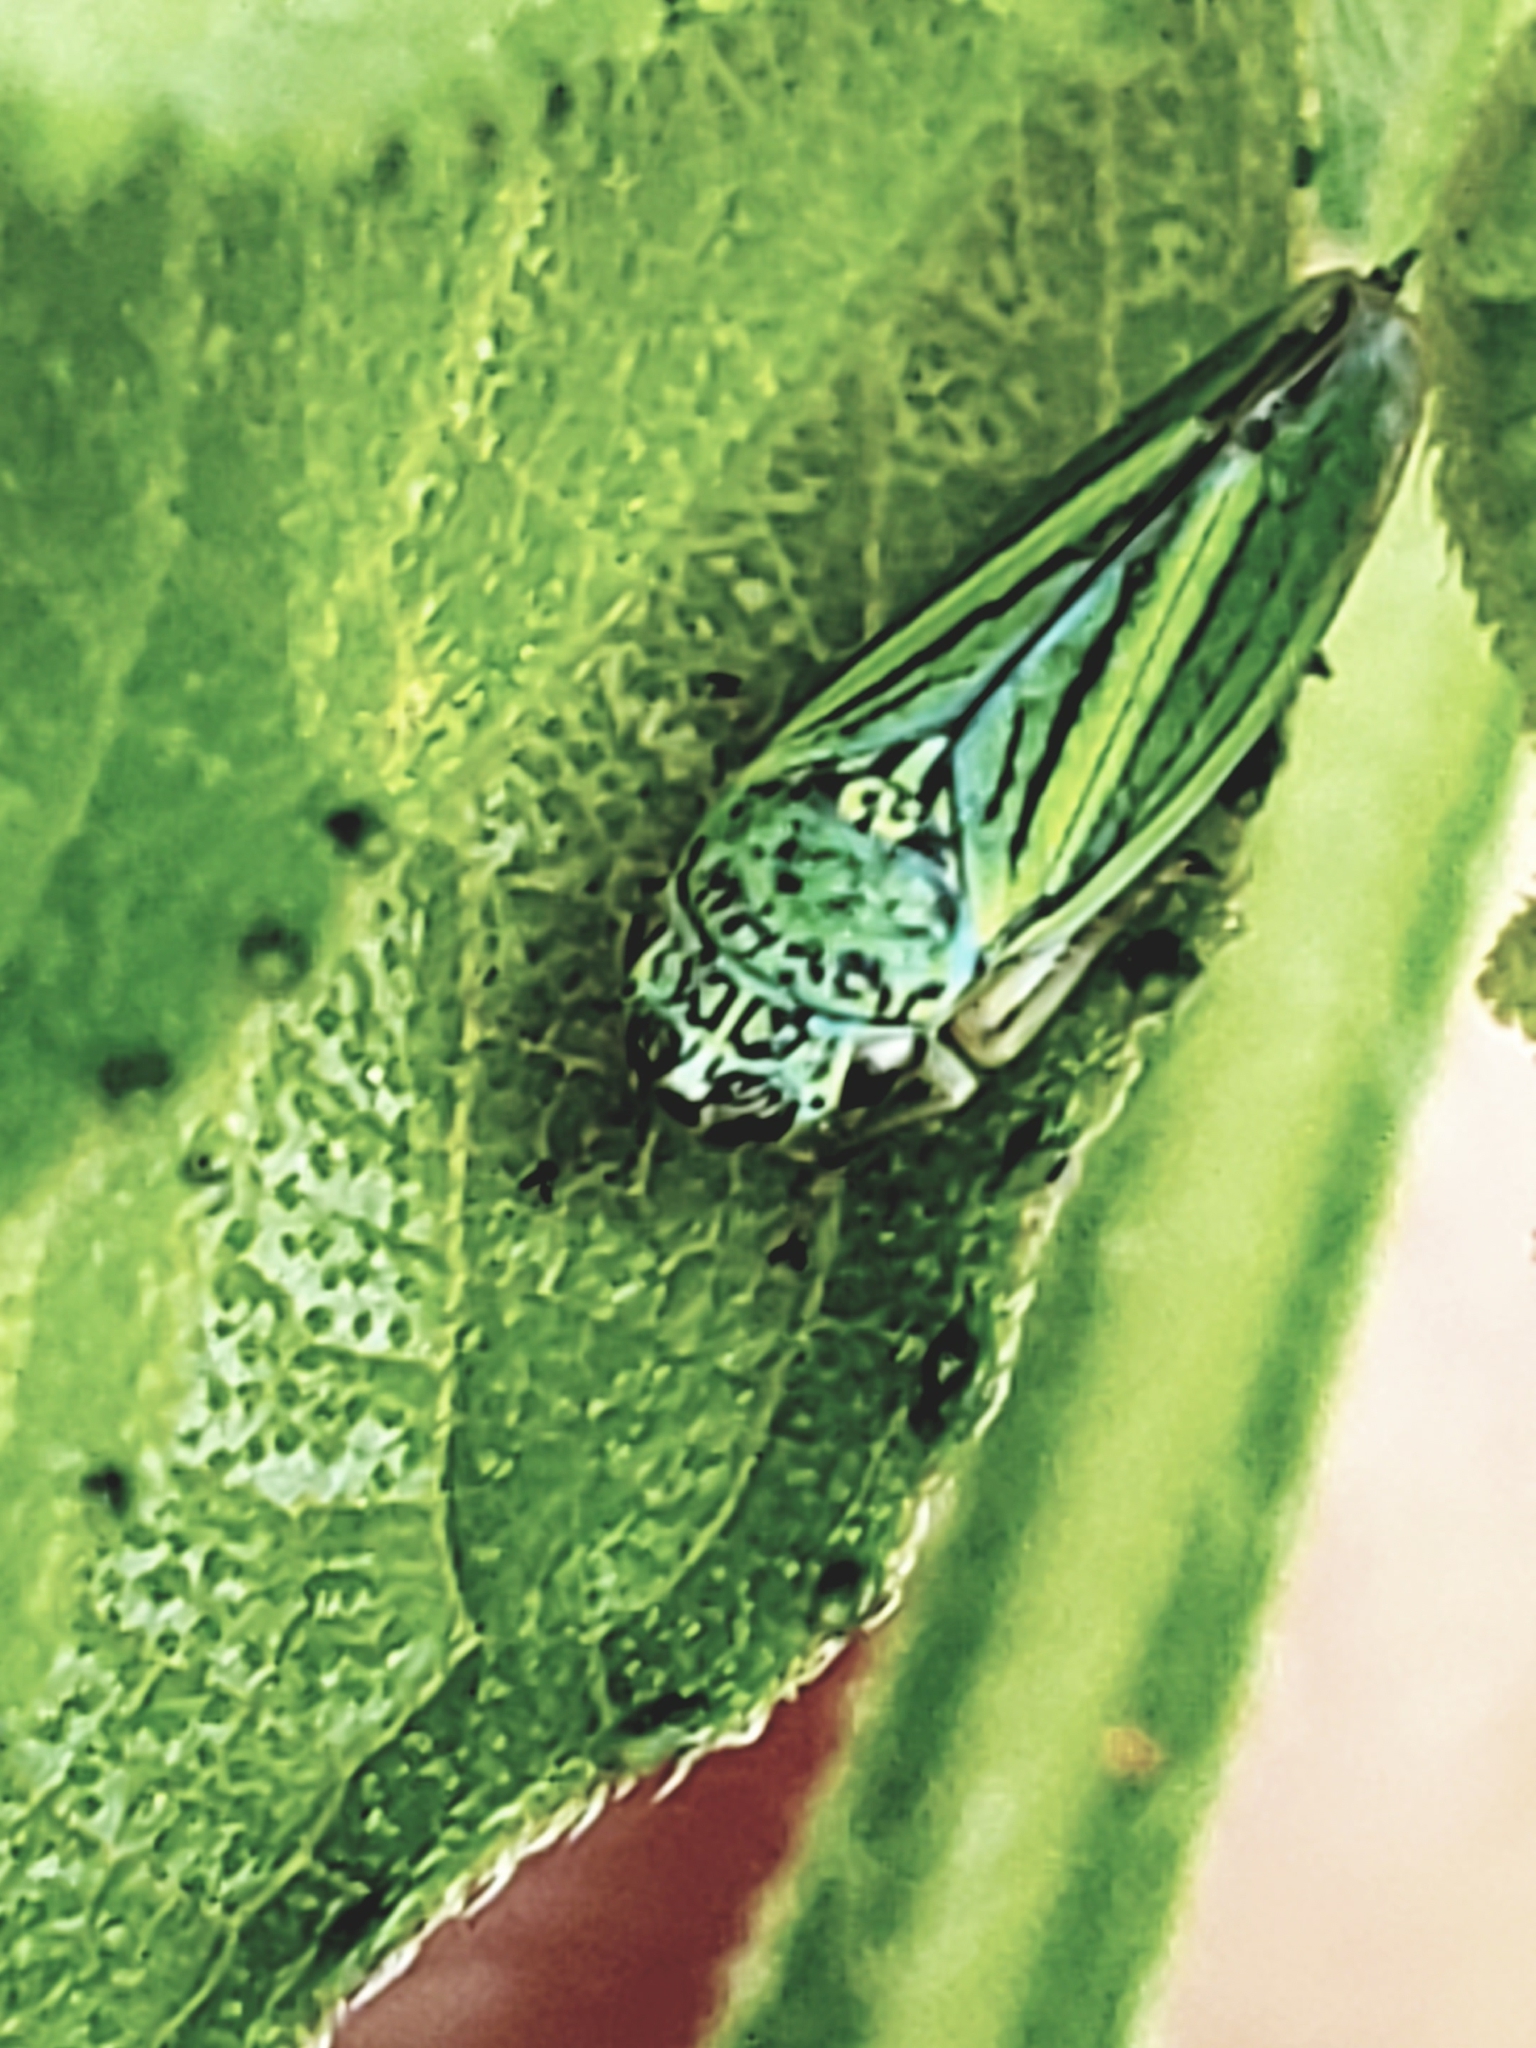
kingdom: Animalia
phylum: Arthropoda
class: Insecta
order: Hemiptera
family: Cicadellidae
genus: Graphocephala
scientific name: Graphocephala lugubris
